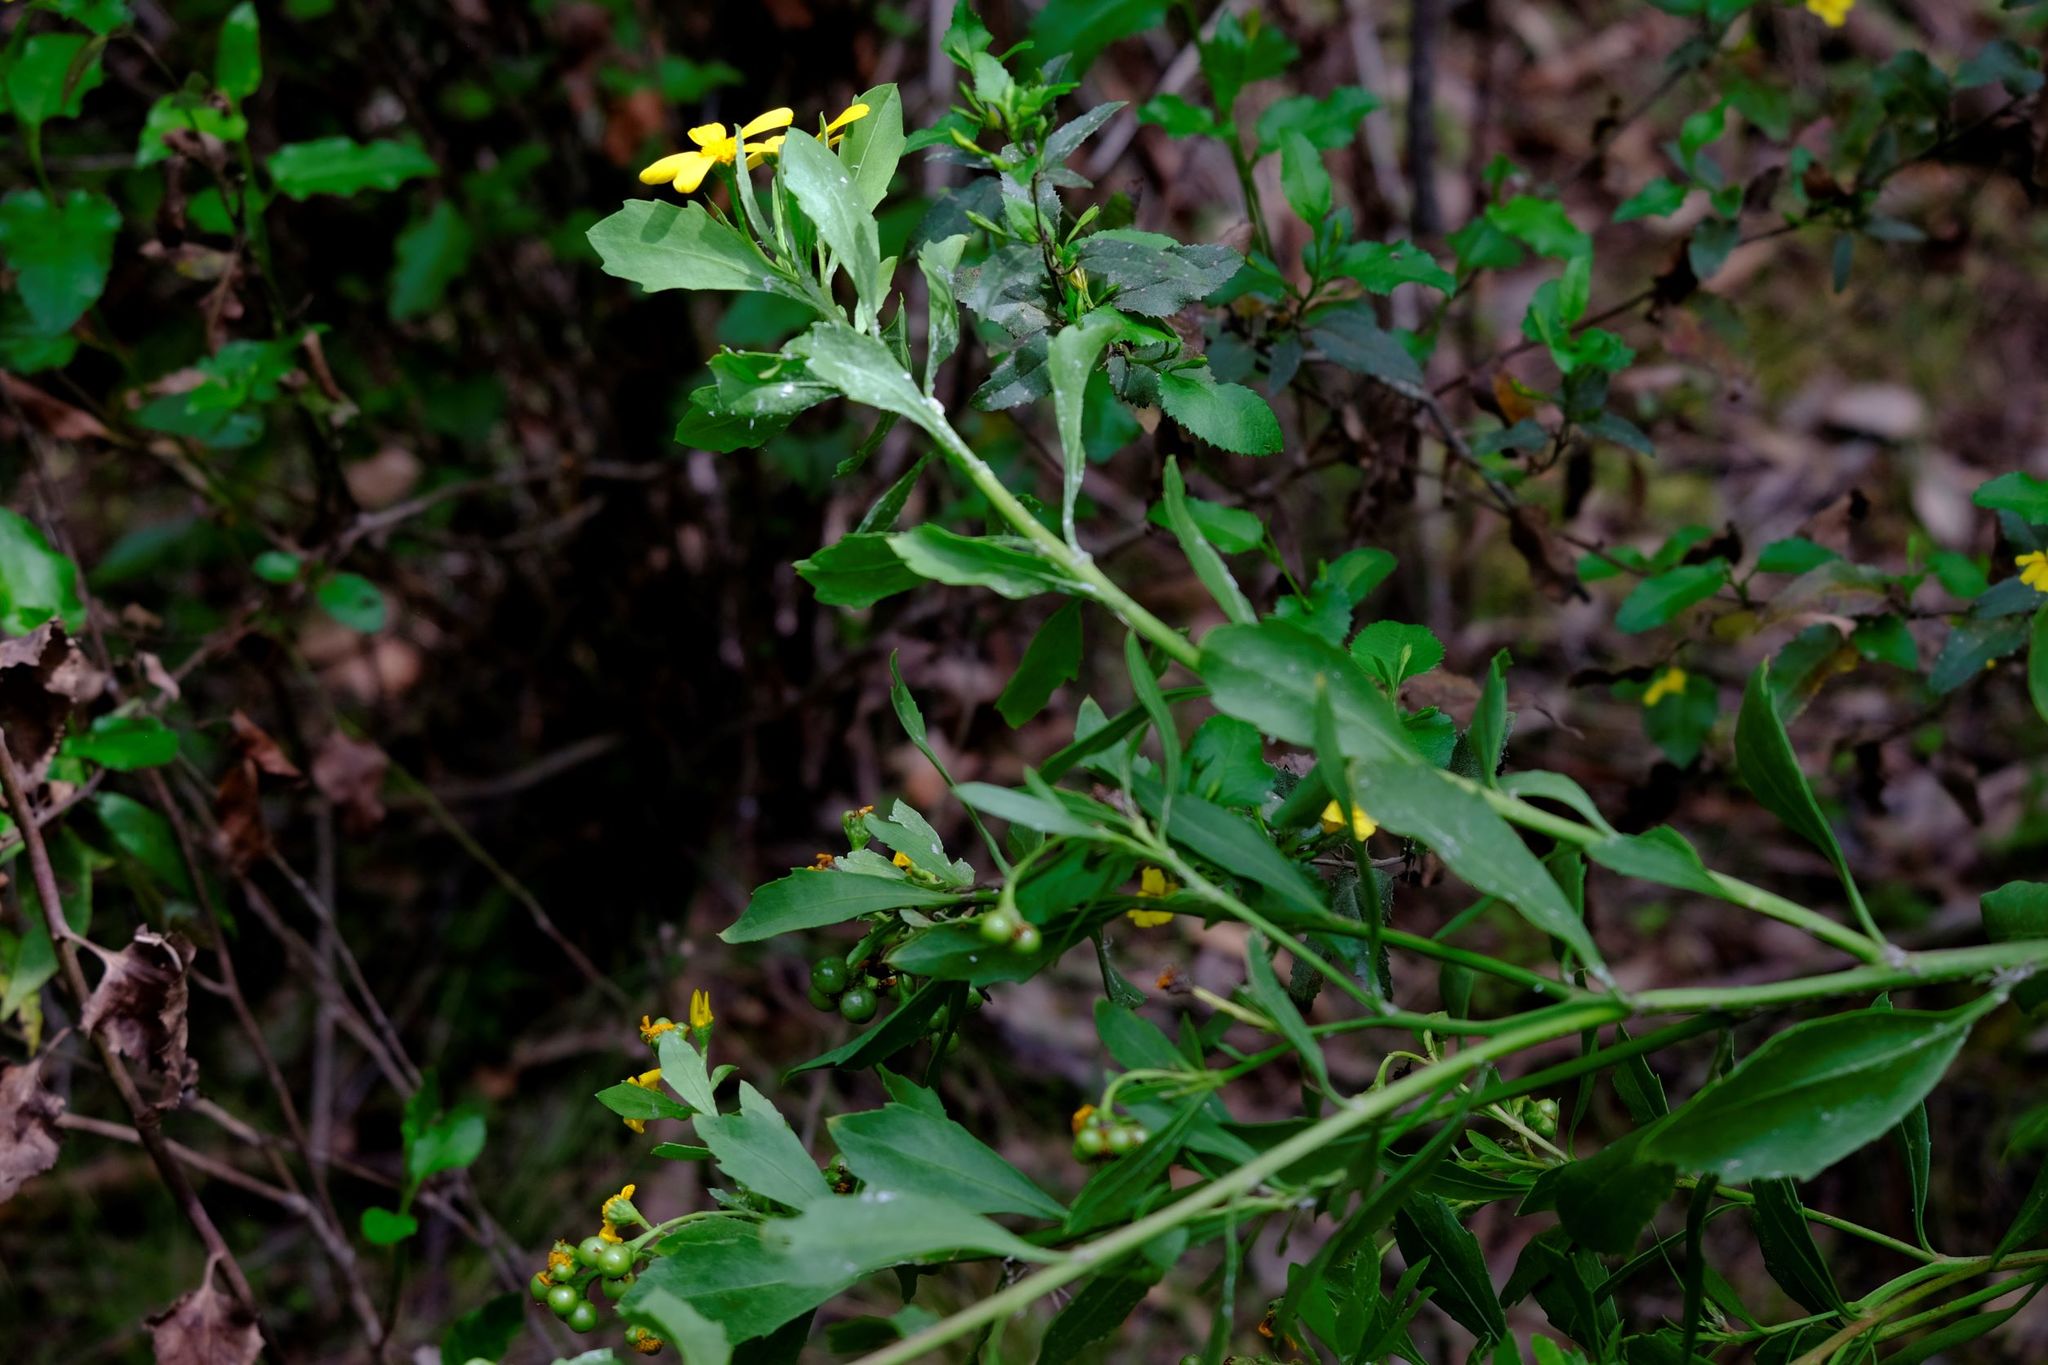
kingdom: Plantae
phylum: Tracheophyta
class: Magnoliopsida
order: Asterales
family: Asteraceae
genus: Osteospermum
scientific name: Osteospermum moniliferum
